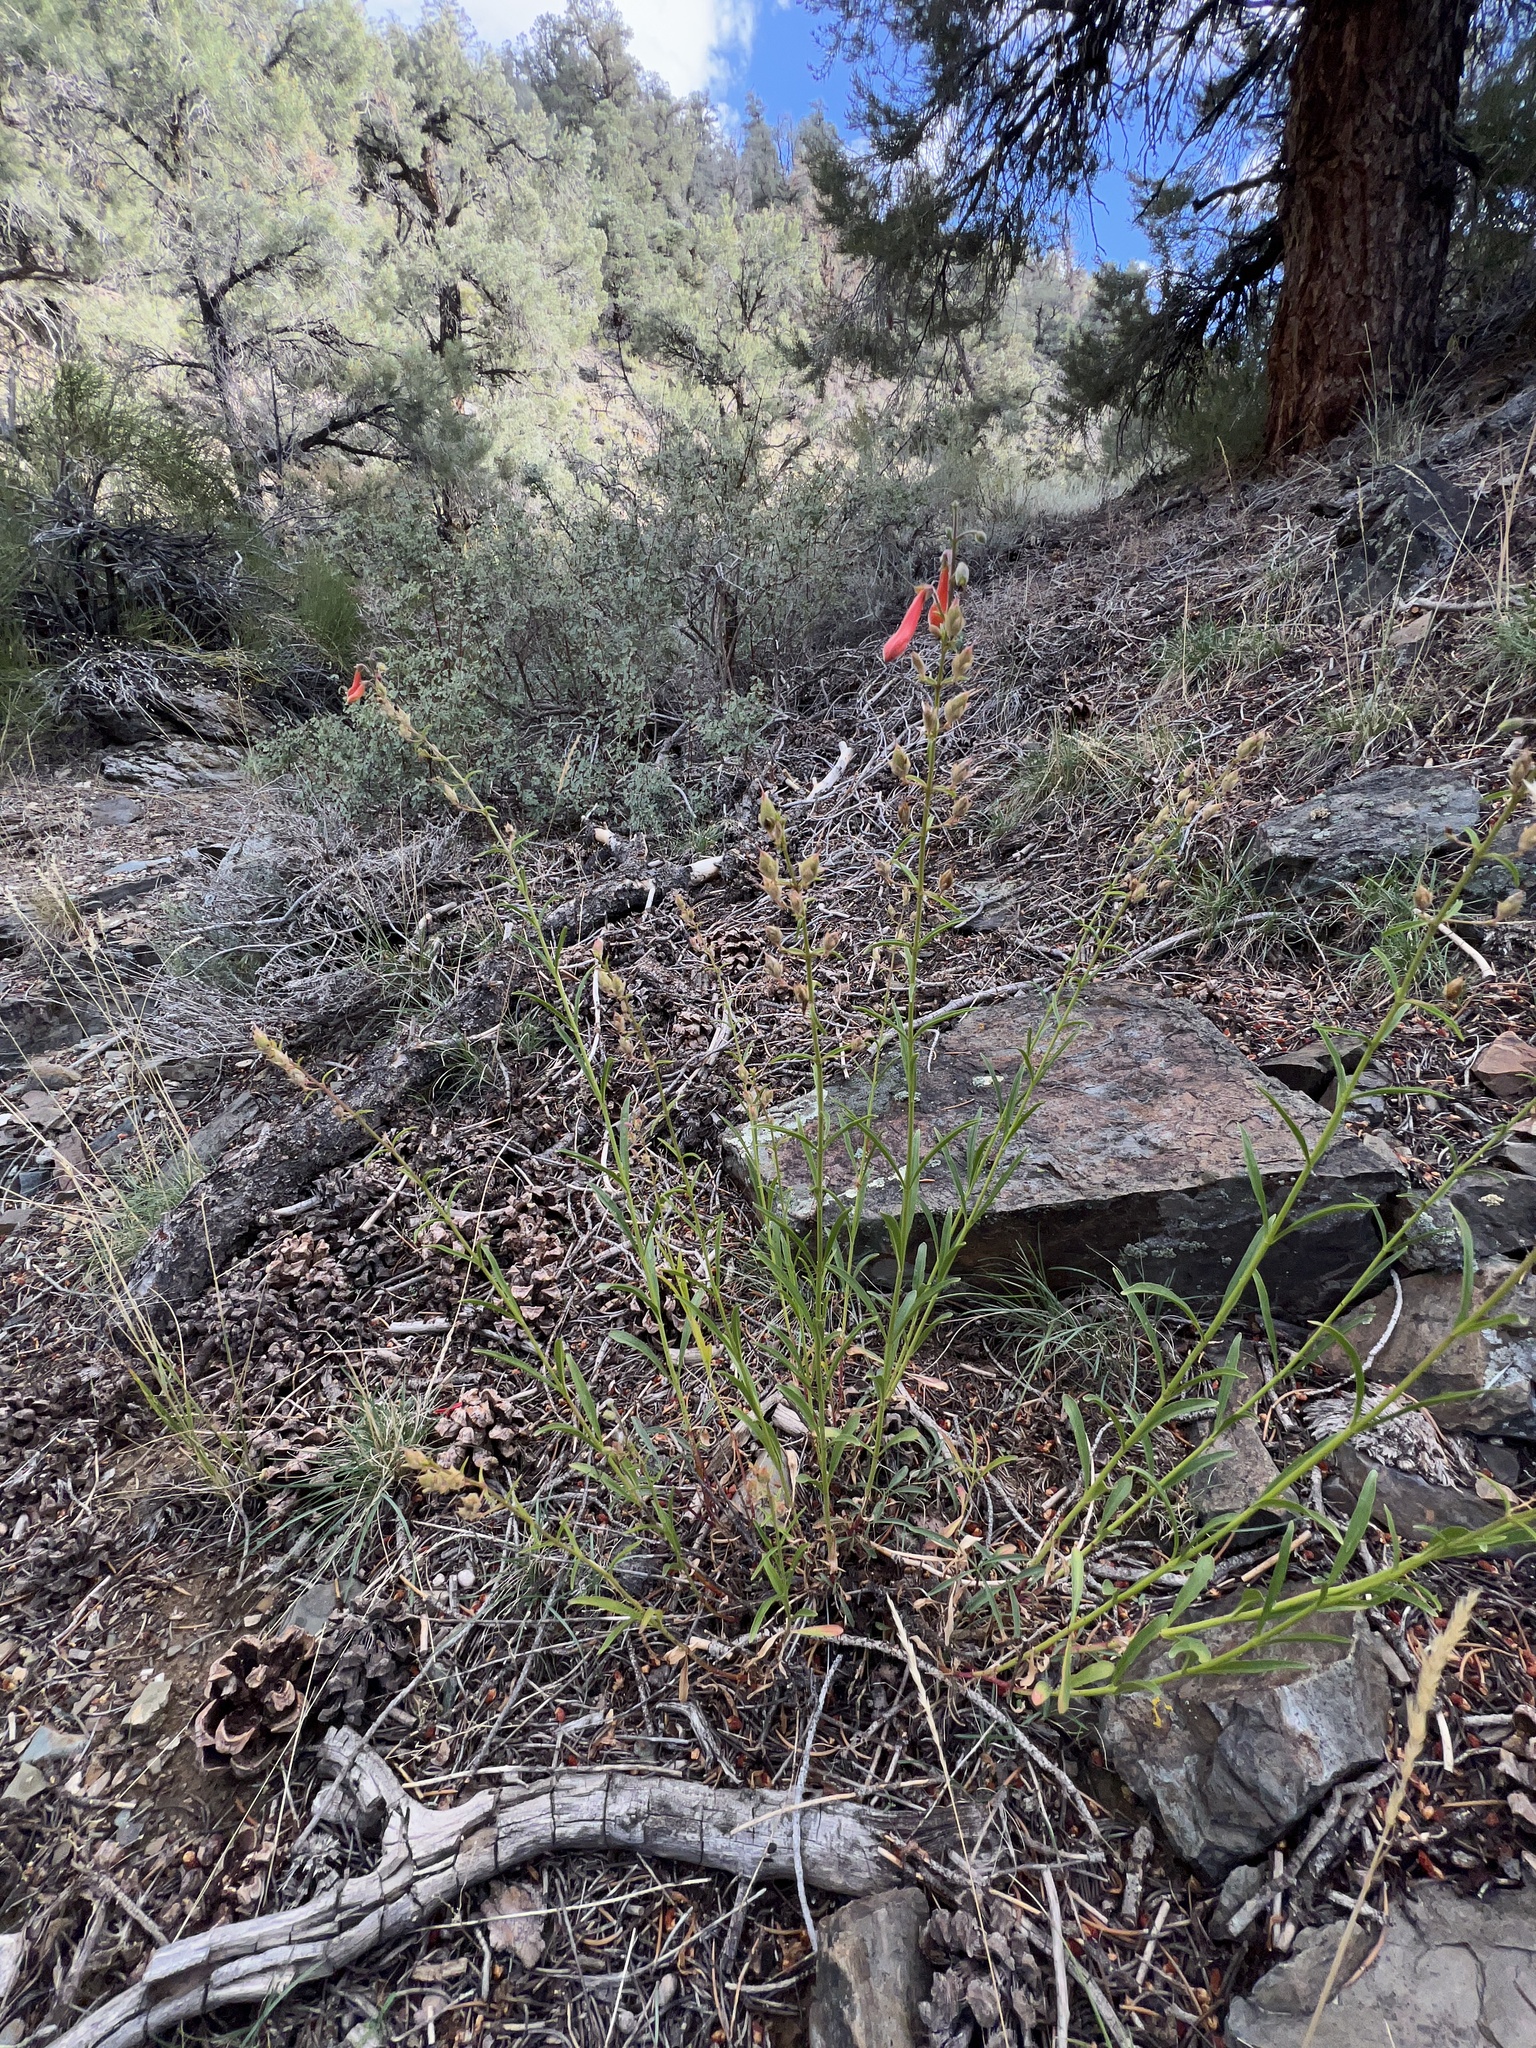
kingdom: Plantae
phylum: Tracheophyta
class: Magnoliopsida
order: Lamiales
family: Plantaginaceae
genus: Penstemon
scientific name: Penstemon rostriflorus
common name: Bridges's penstemon
